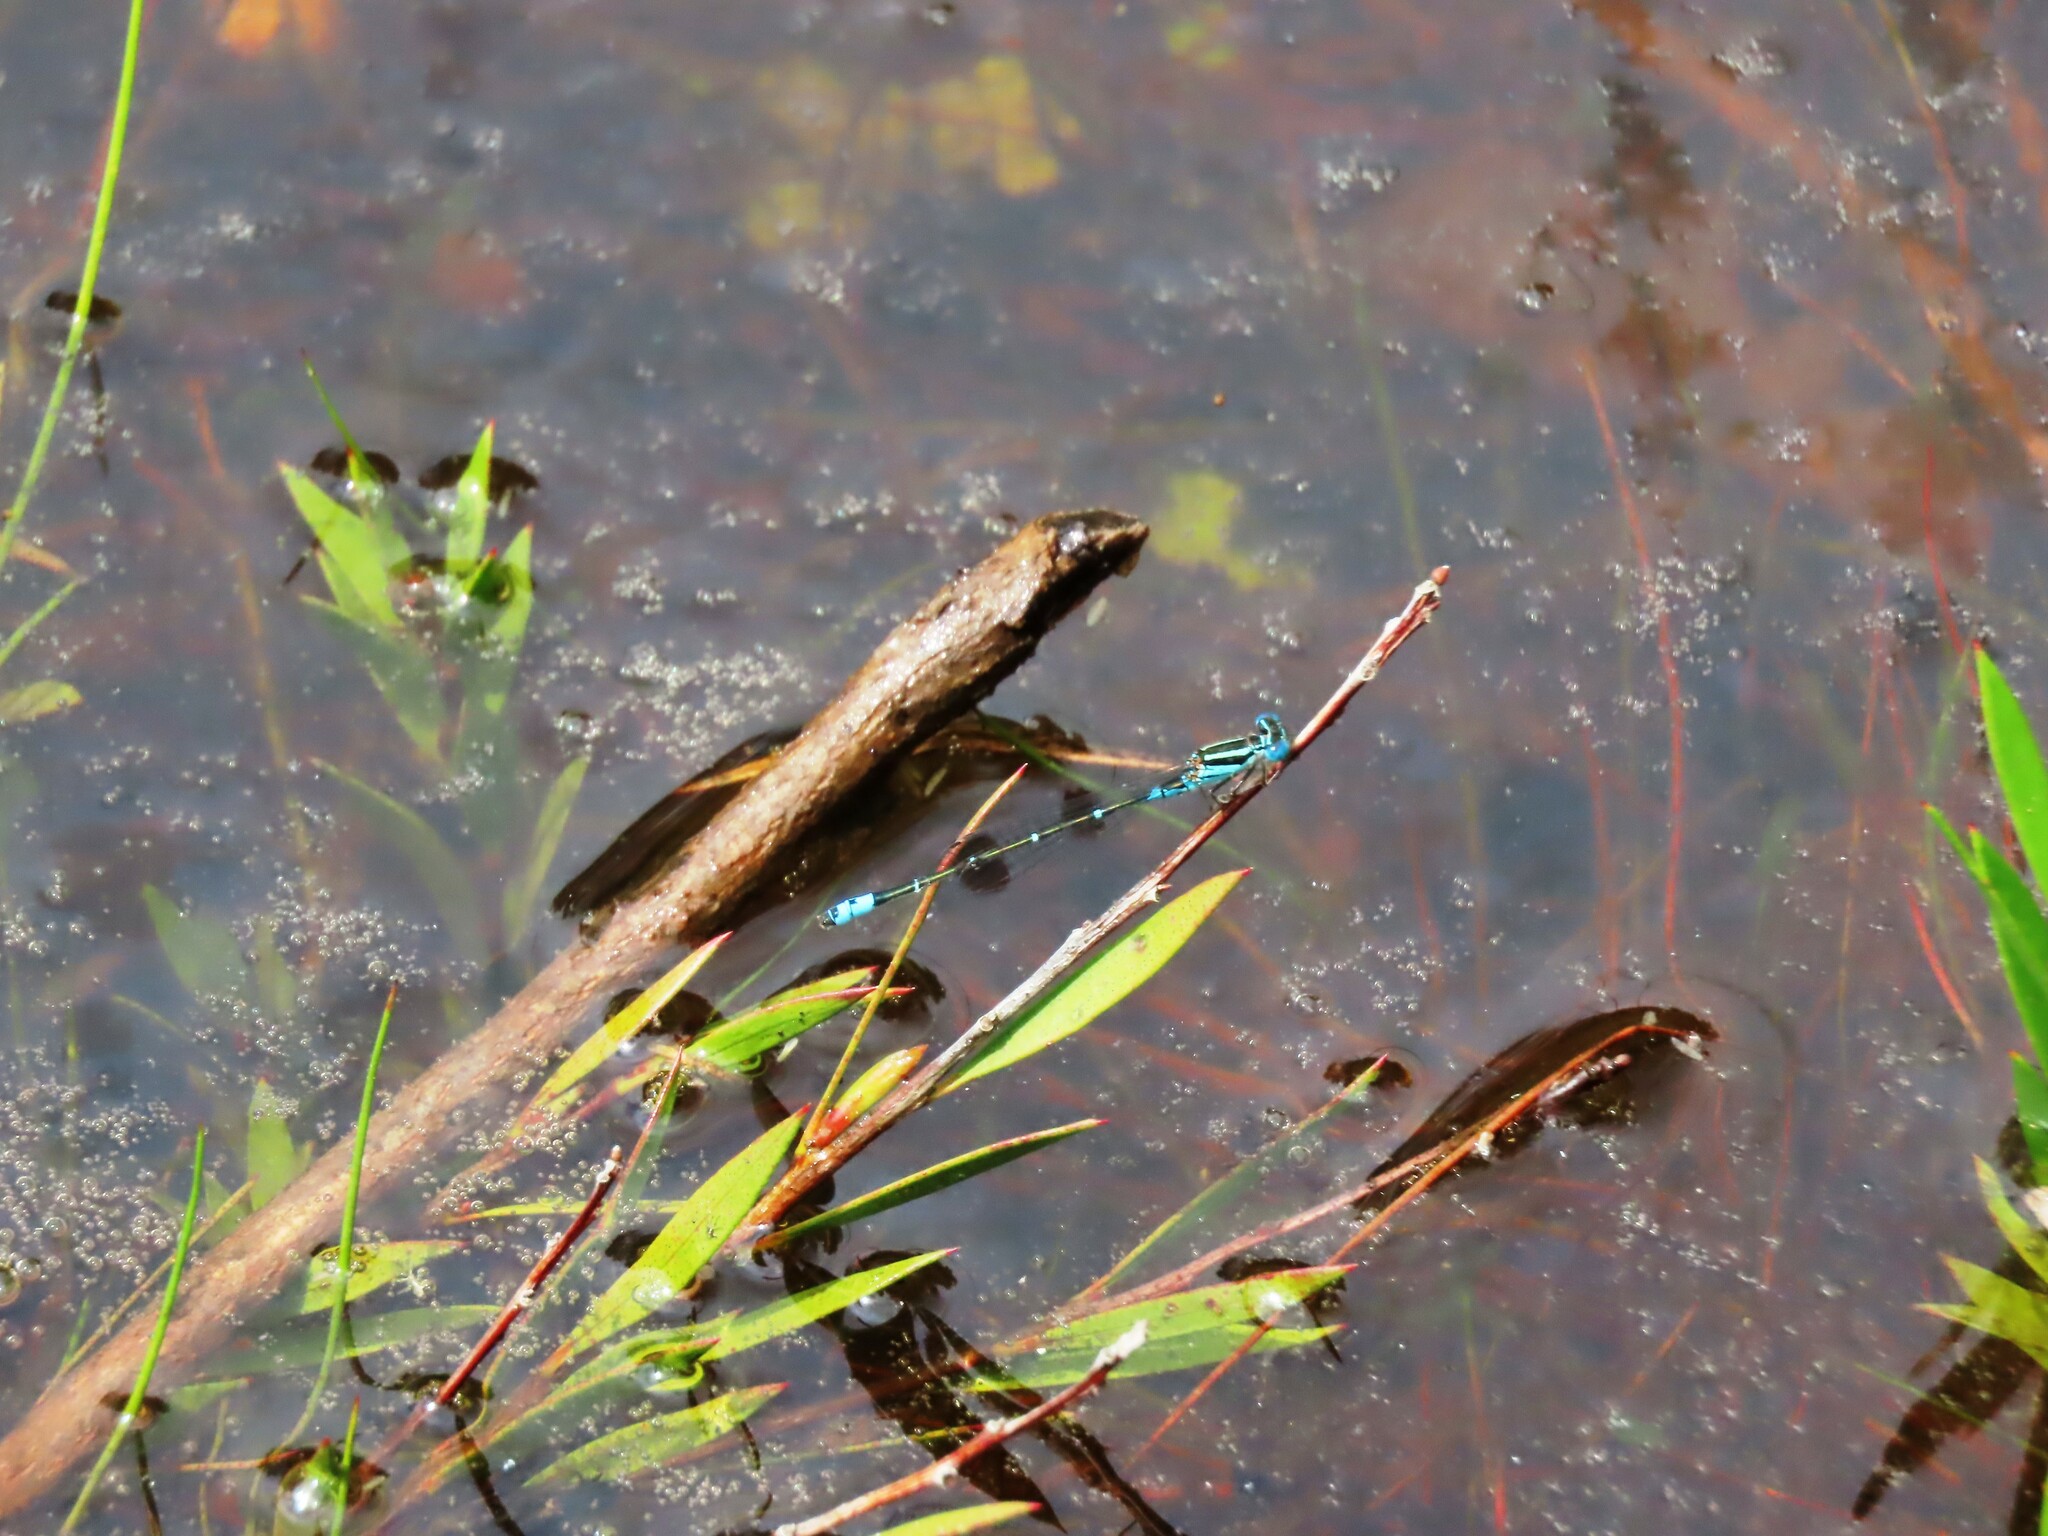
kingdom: Animalia
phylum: Arthropoda
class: Insecta
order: Odonata
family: Coenagrionidae
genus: Austroagrion
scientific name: Austroagrion watsoni
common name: Eastern billabongfly
